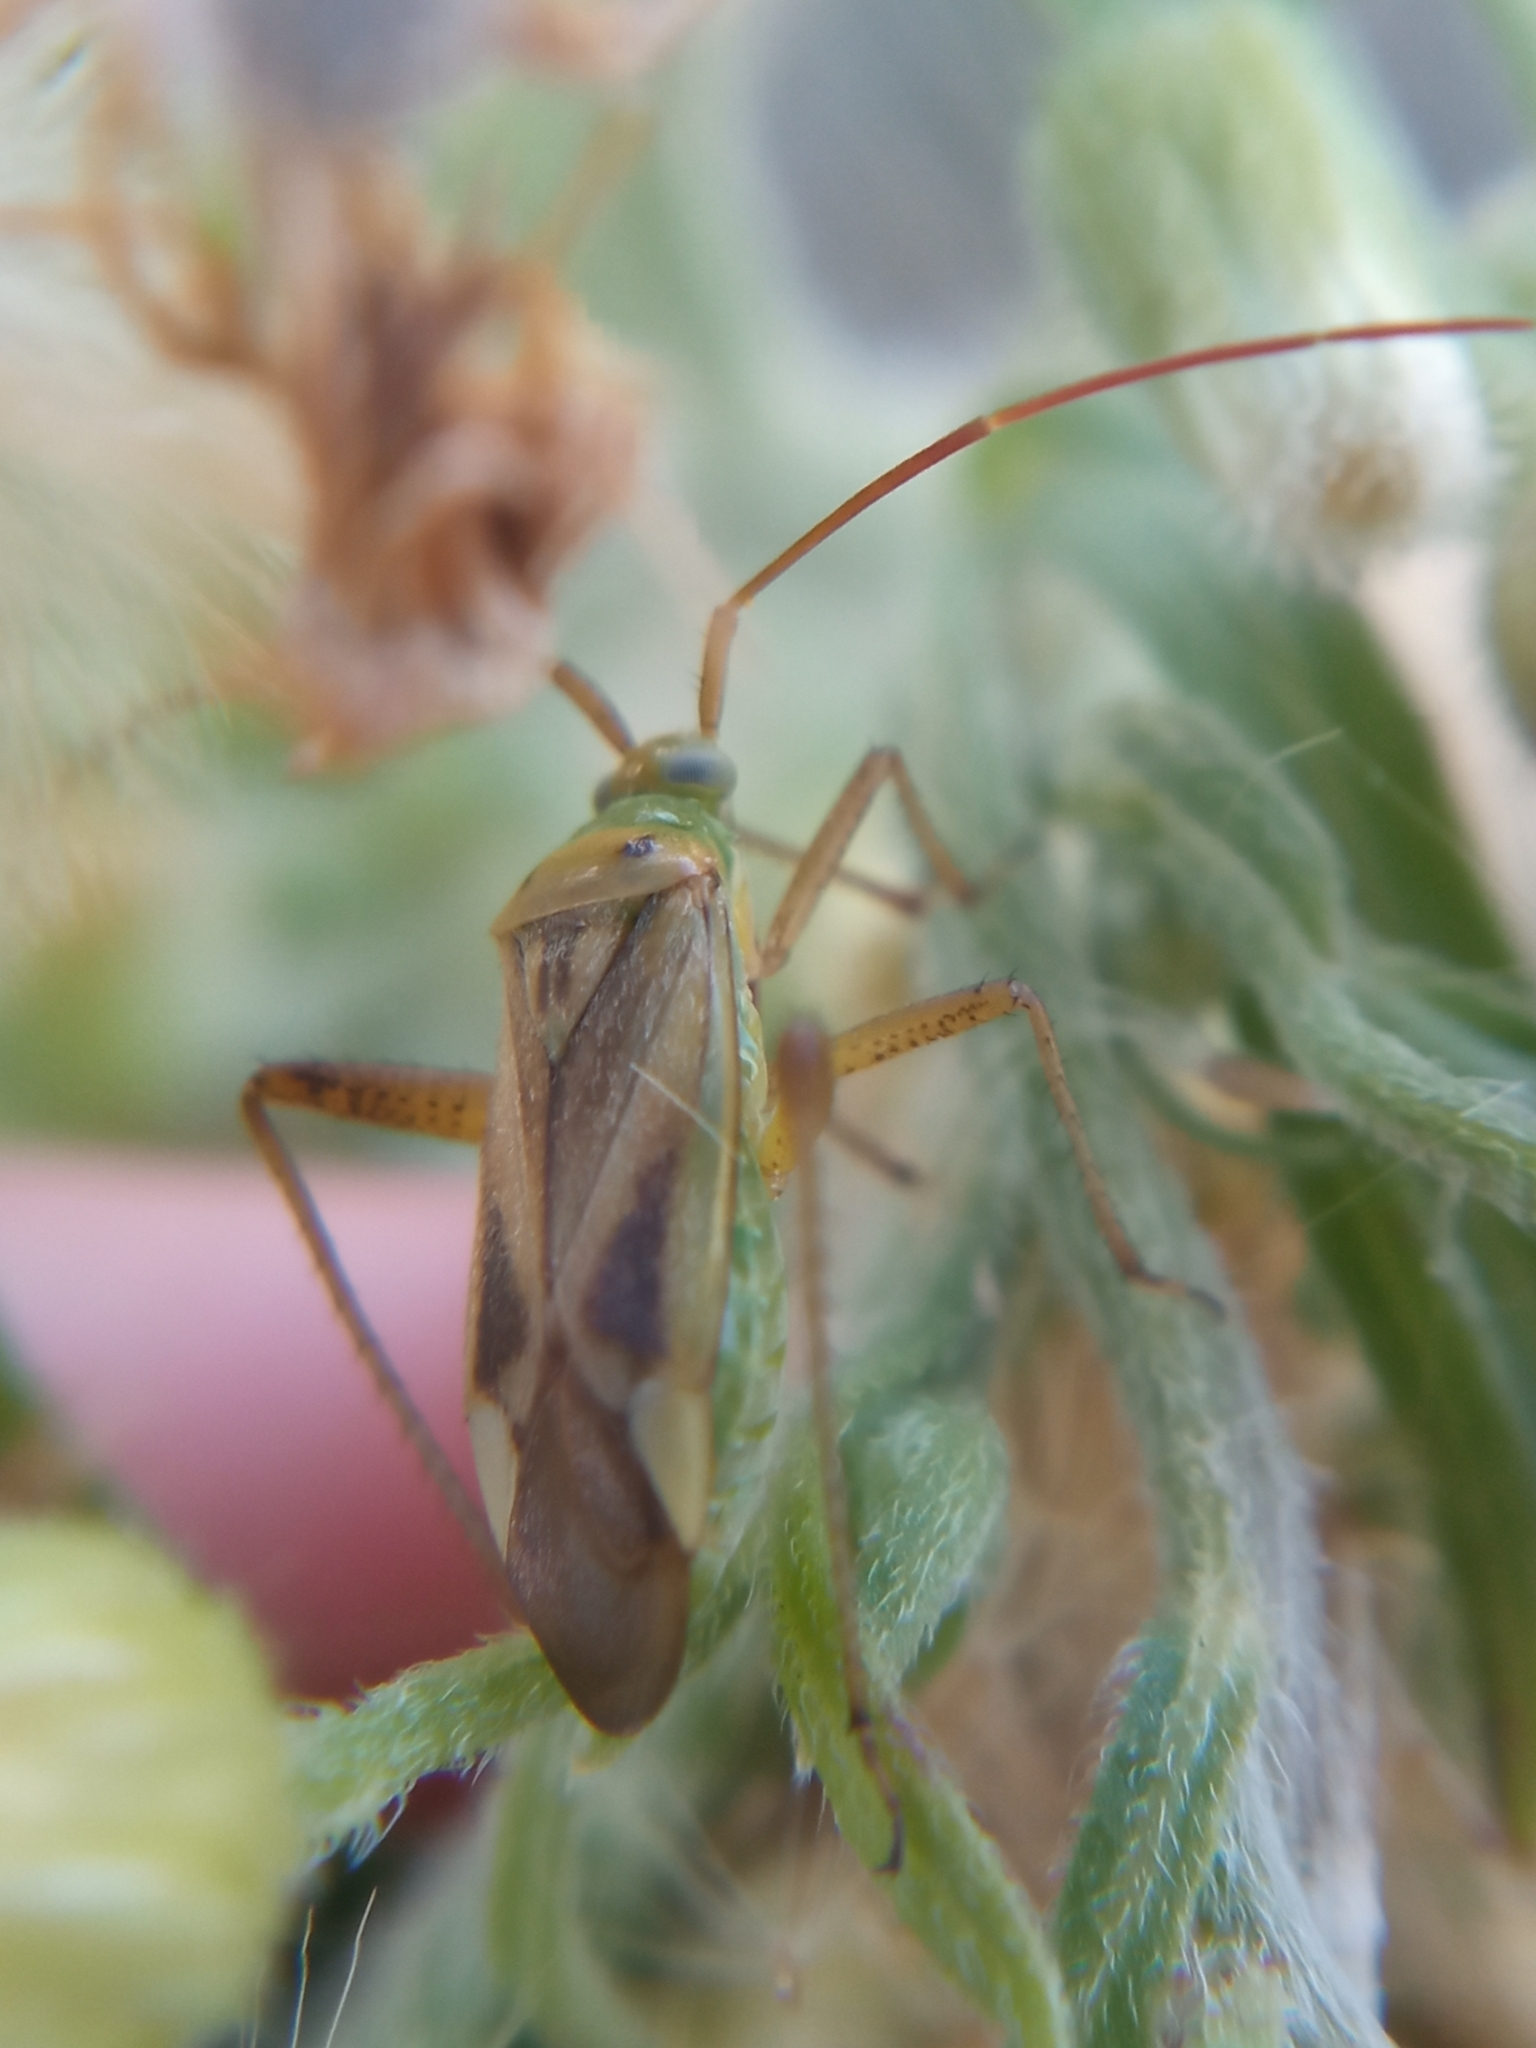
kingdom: Animalia
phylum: Arthropoda
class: Insecta
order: Hemiptera
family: Miridae
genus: Adelphocoris
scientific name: Adelphocoris lineolatus
